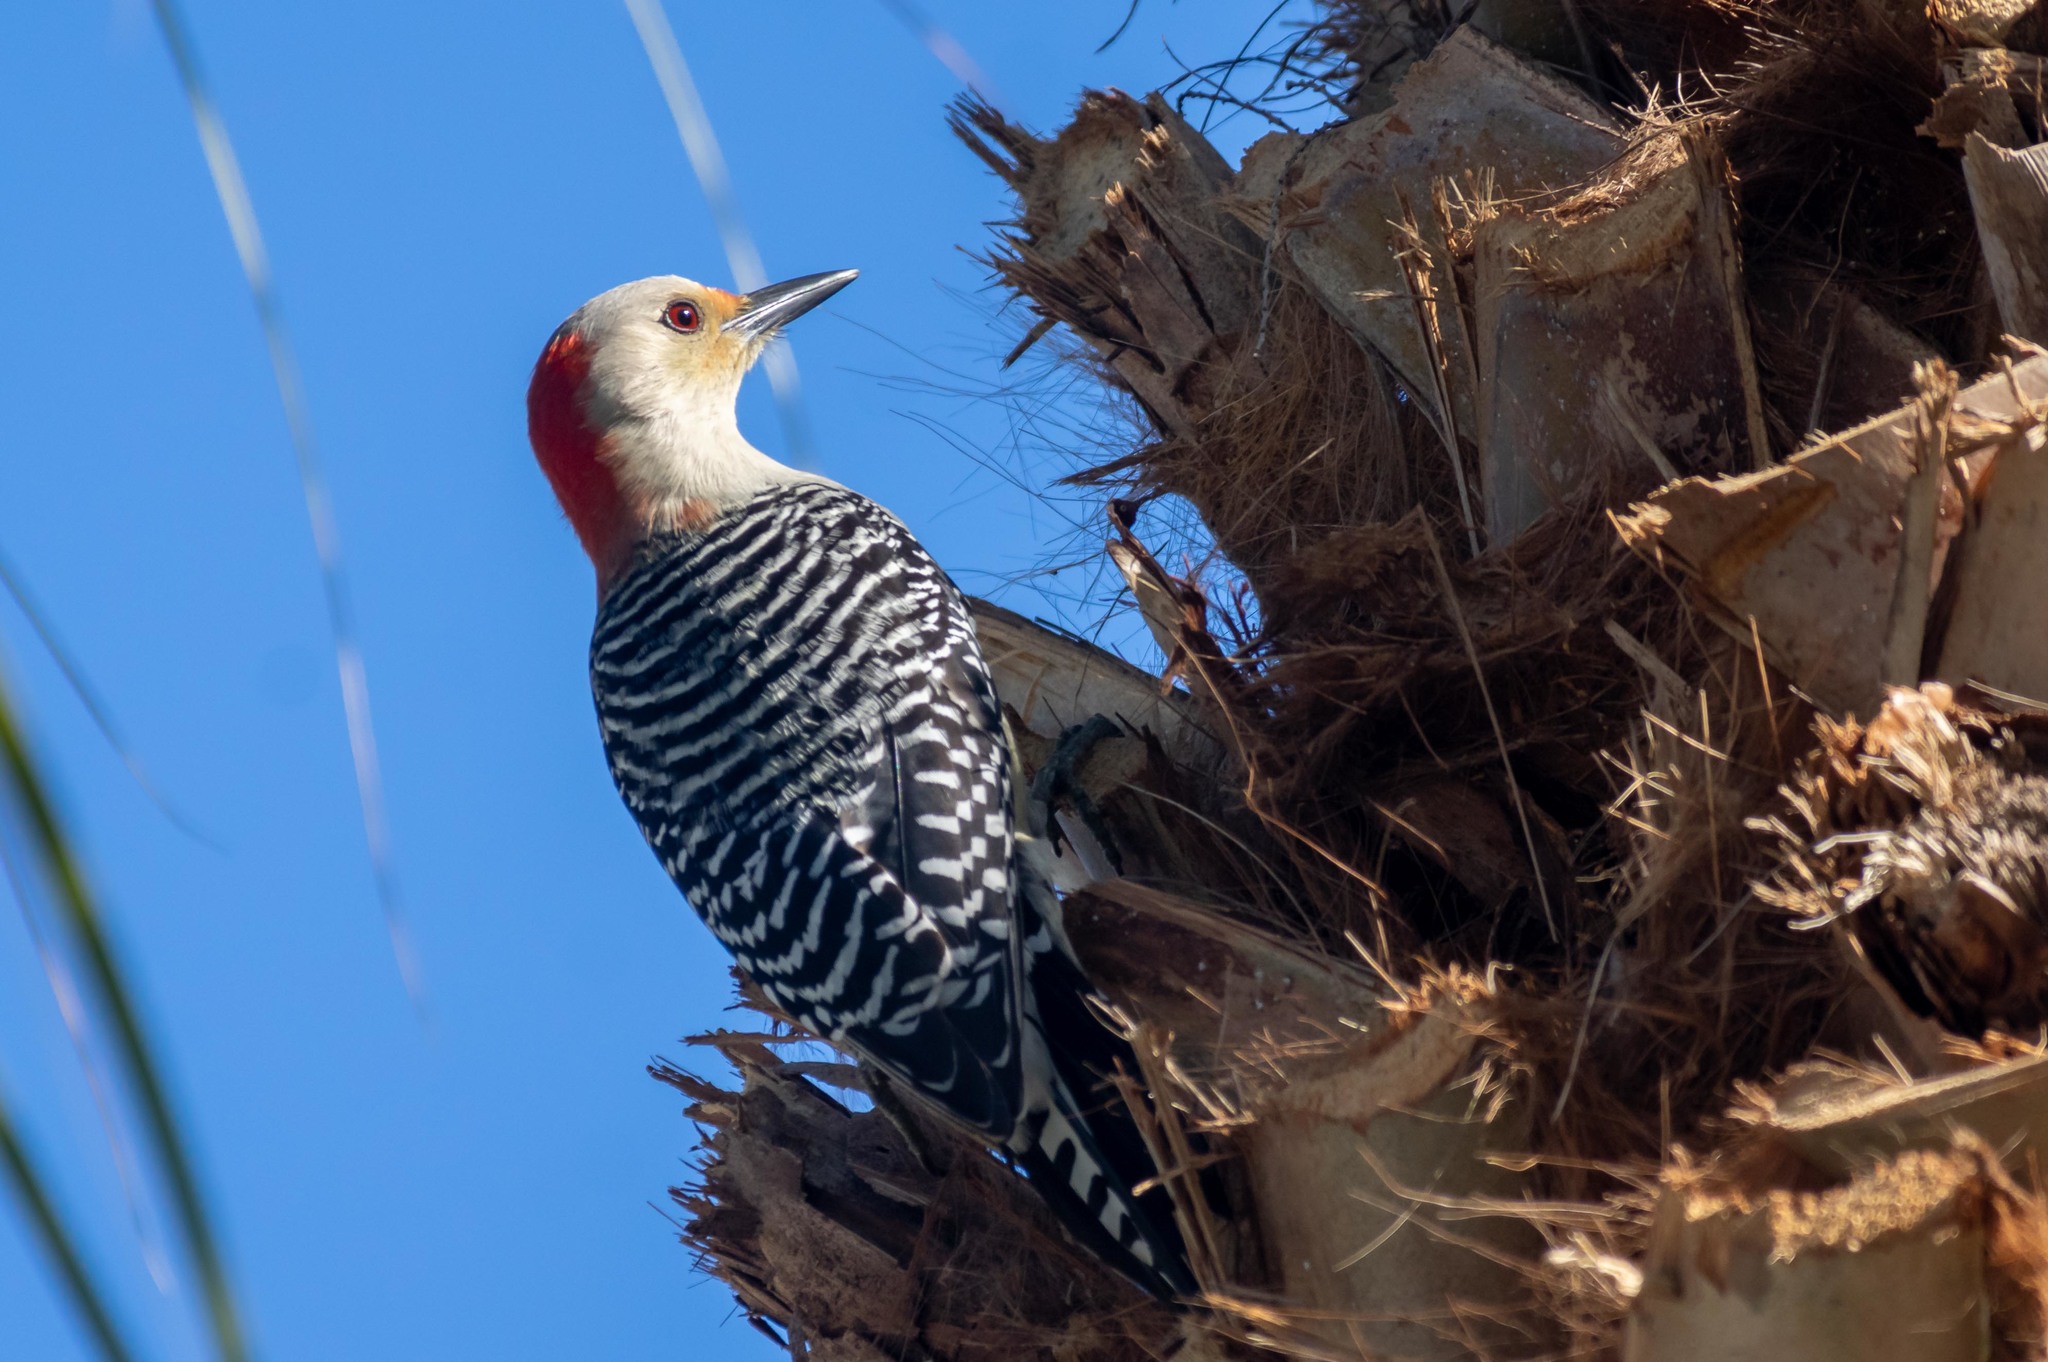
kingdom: Animalia
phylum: Chordata
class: Aves
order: Piciformes
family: Picidae
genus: Melanerpes
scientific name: Melanerpes carolinus
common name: Red-bellied woodpecker
